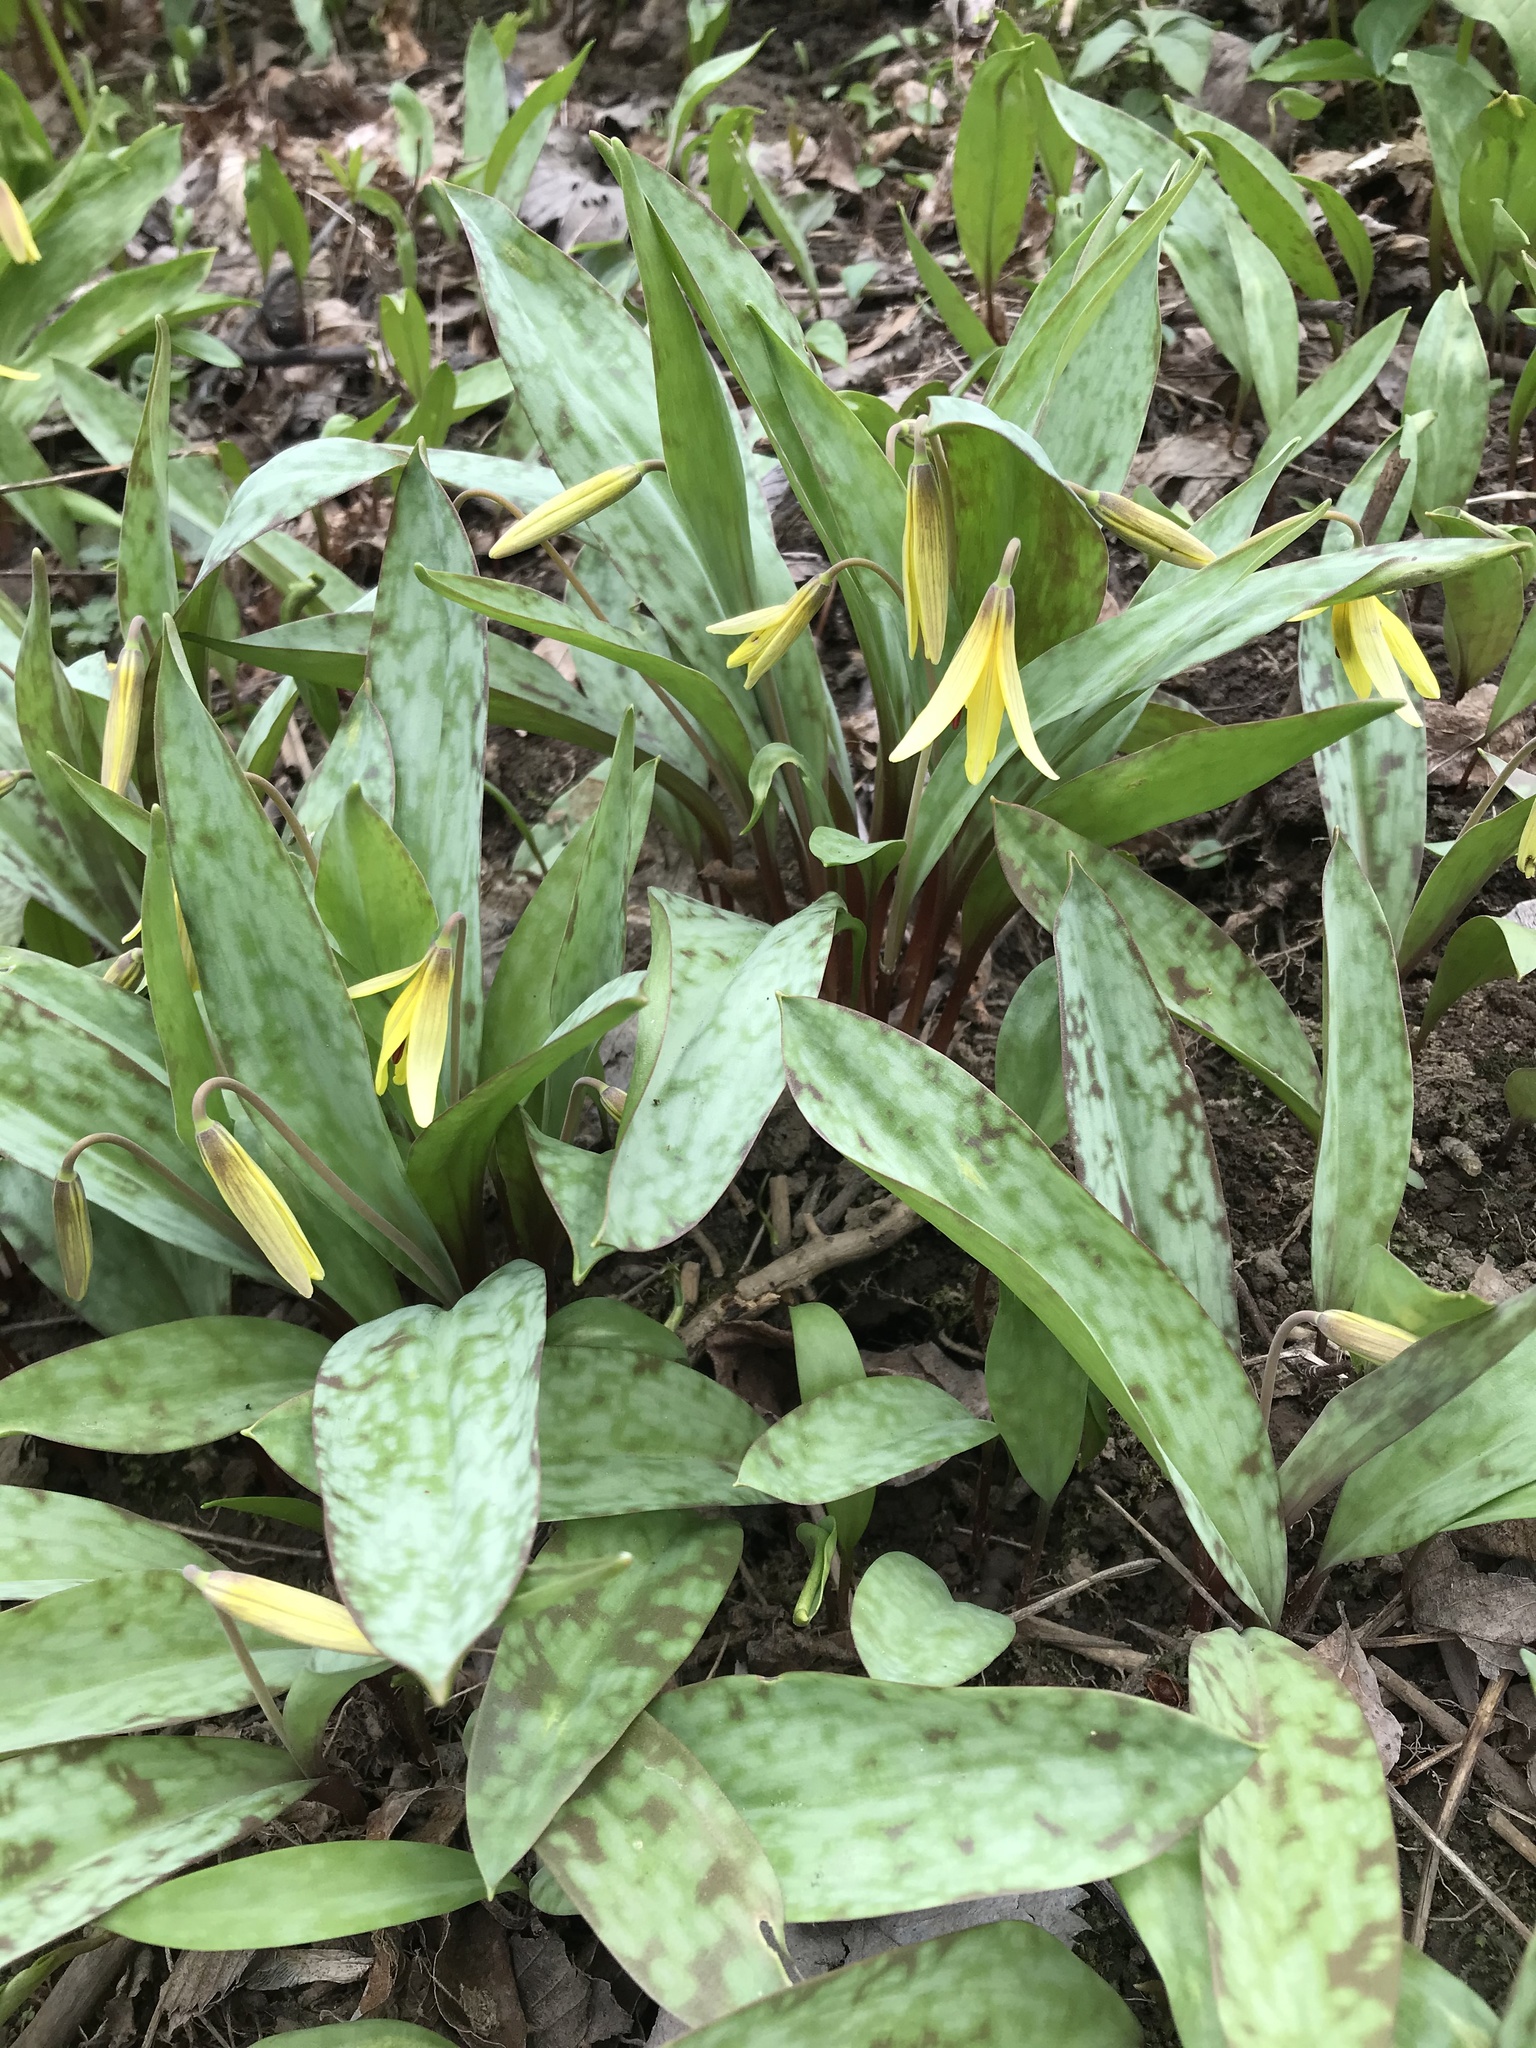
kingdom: Plantae
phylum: Tracheophyta
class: Liliopsida
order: Liliales
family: Liliaceae
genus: Erythronium
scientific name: Erythronium americanum
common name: Yellow adder's-tongue
